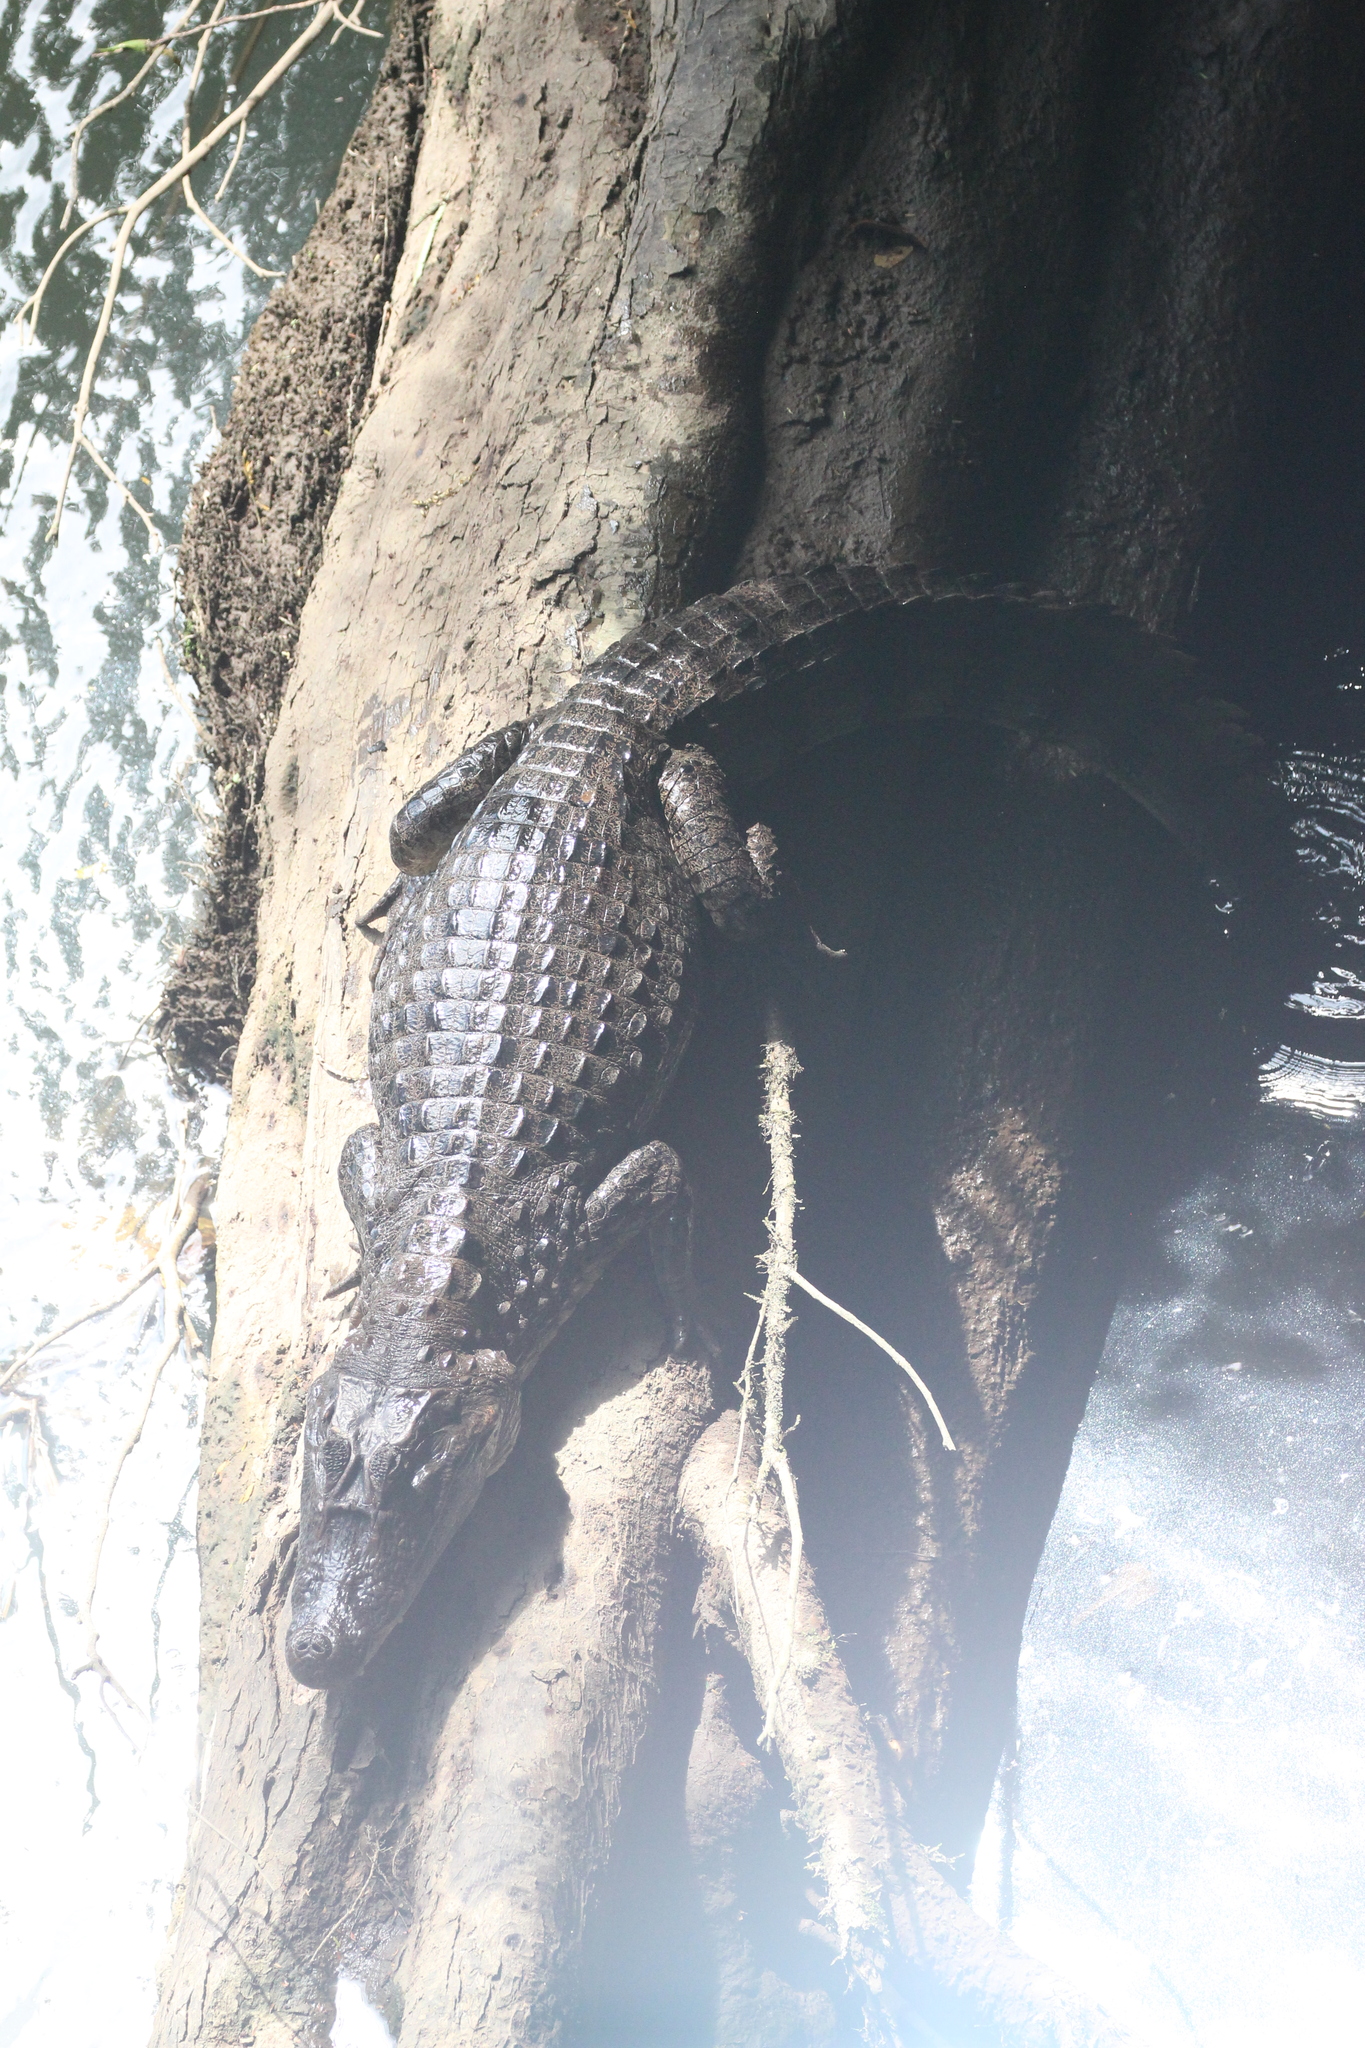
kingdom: Animalia
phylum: Chordata
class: Crocodylia
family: Alligatoridae
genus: Caiman
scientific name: Caiman crocodilus
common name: Common caiman
